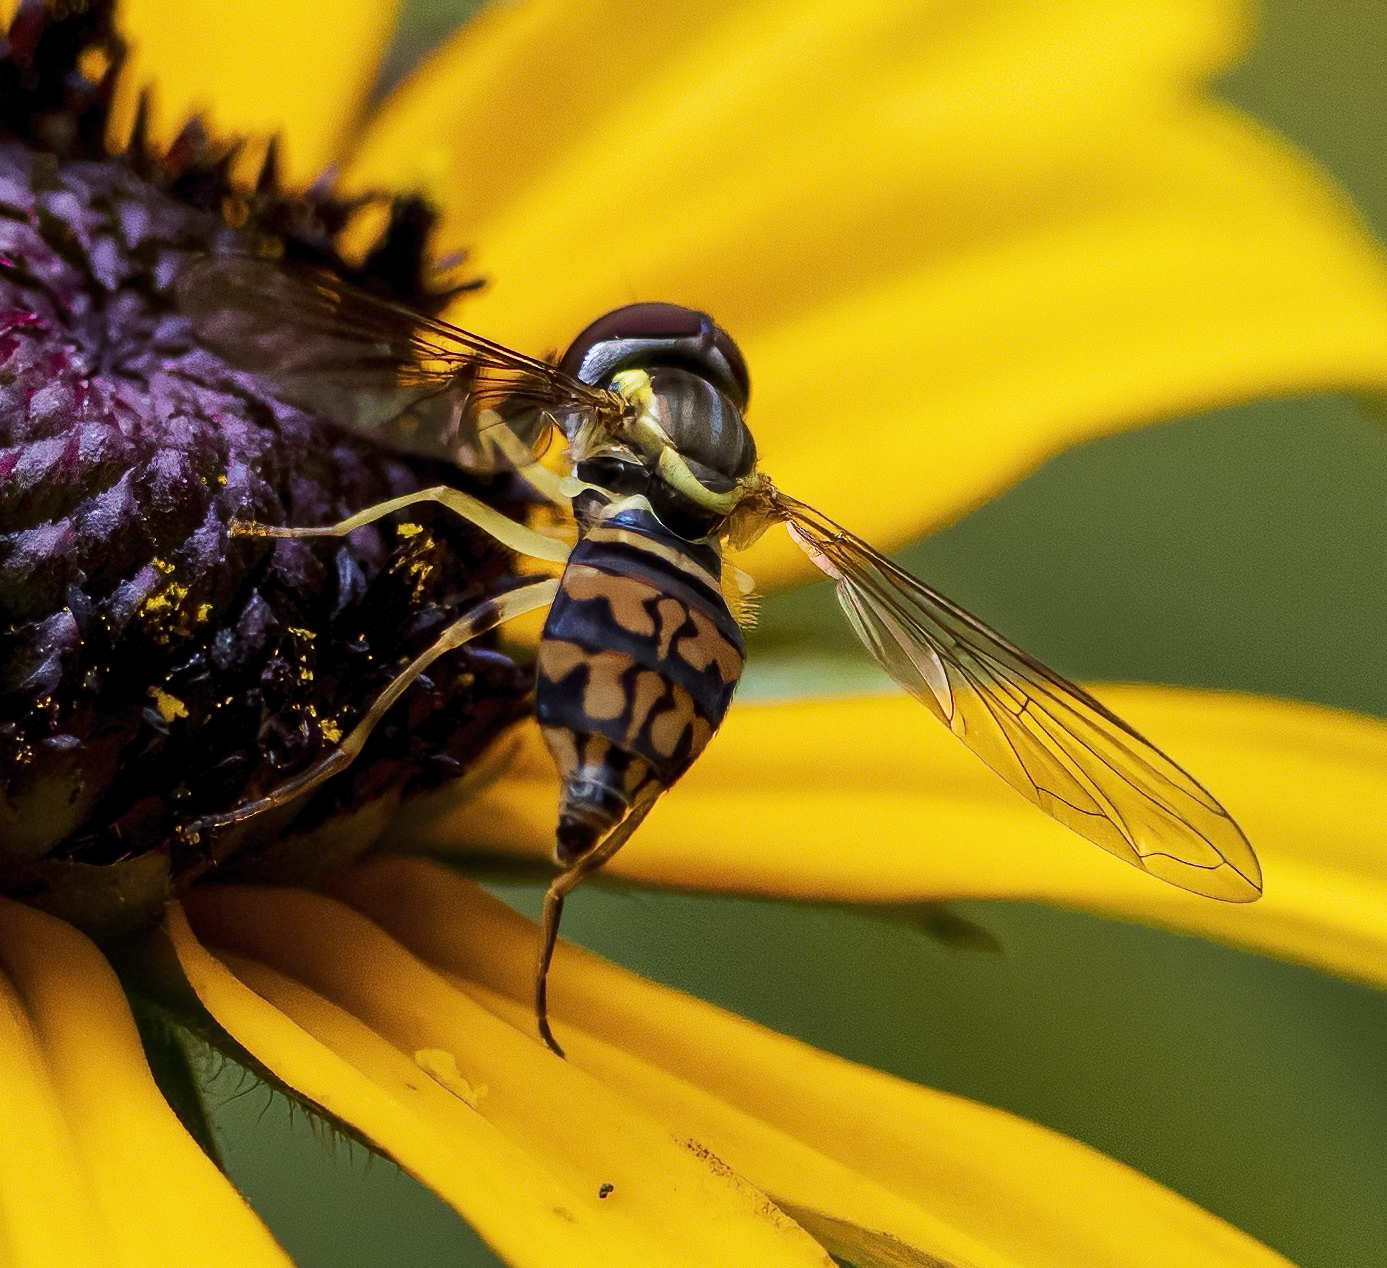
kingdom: Animalia
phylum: Arthropoda
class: Insecta
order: Diptera
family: Syrphidae
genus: Toxomerus
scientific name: Toxomerus geminatus
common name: Eastern calligrapher
